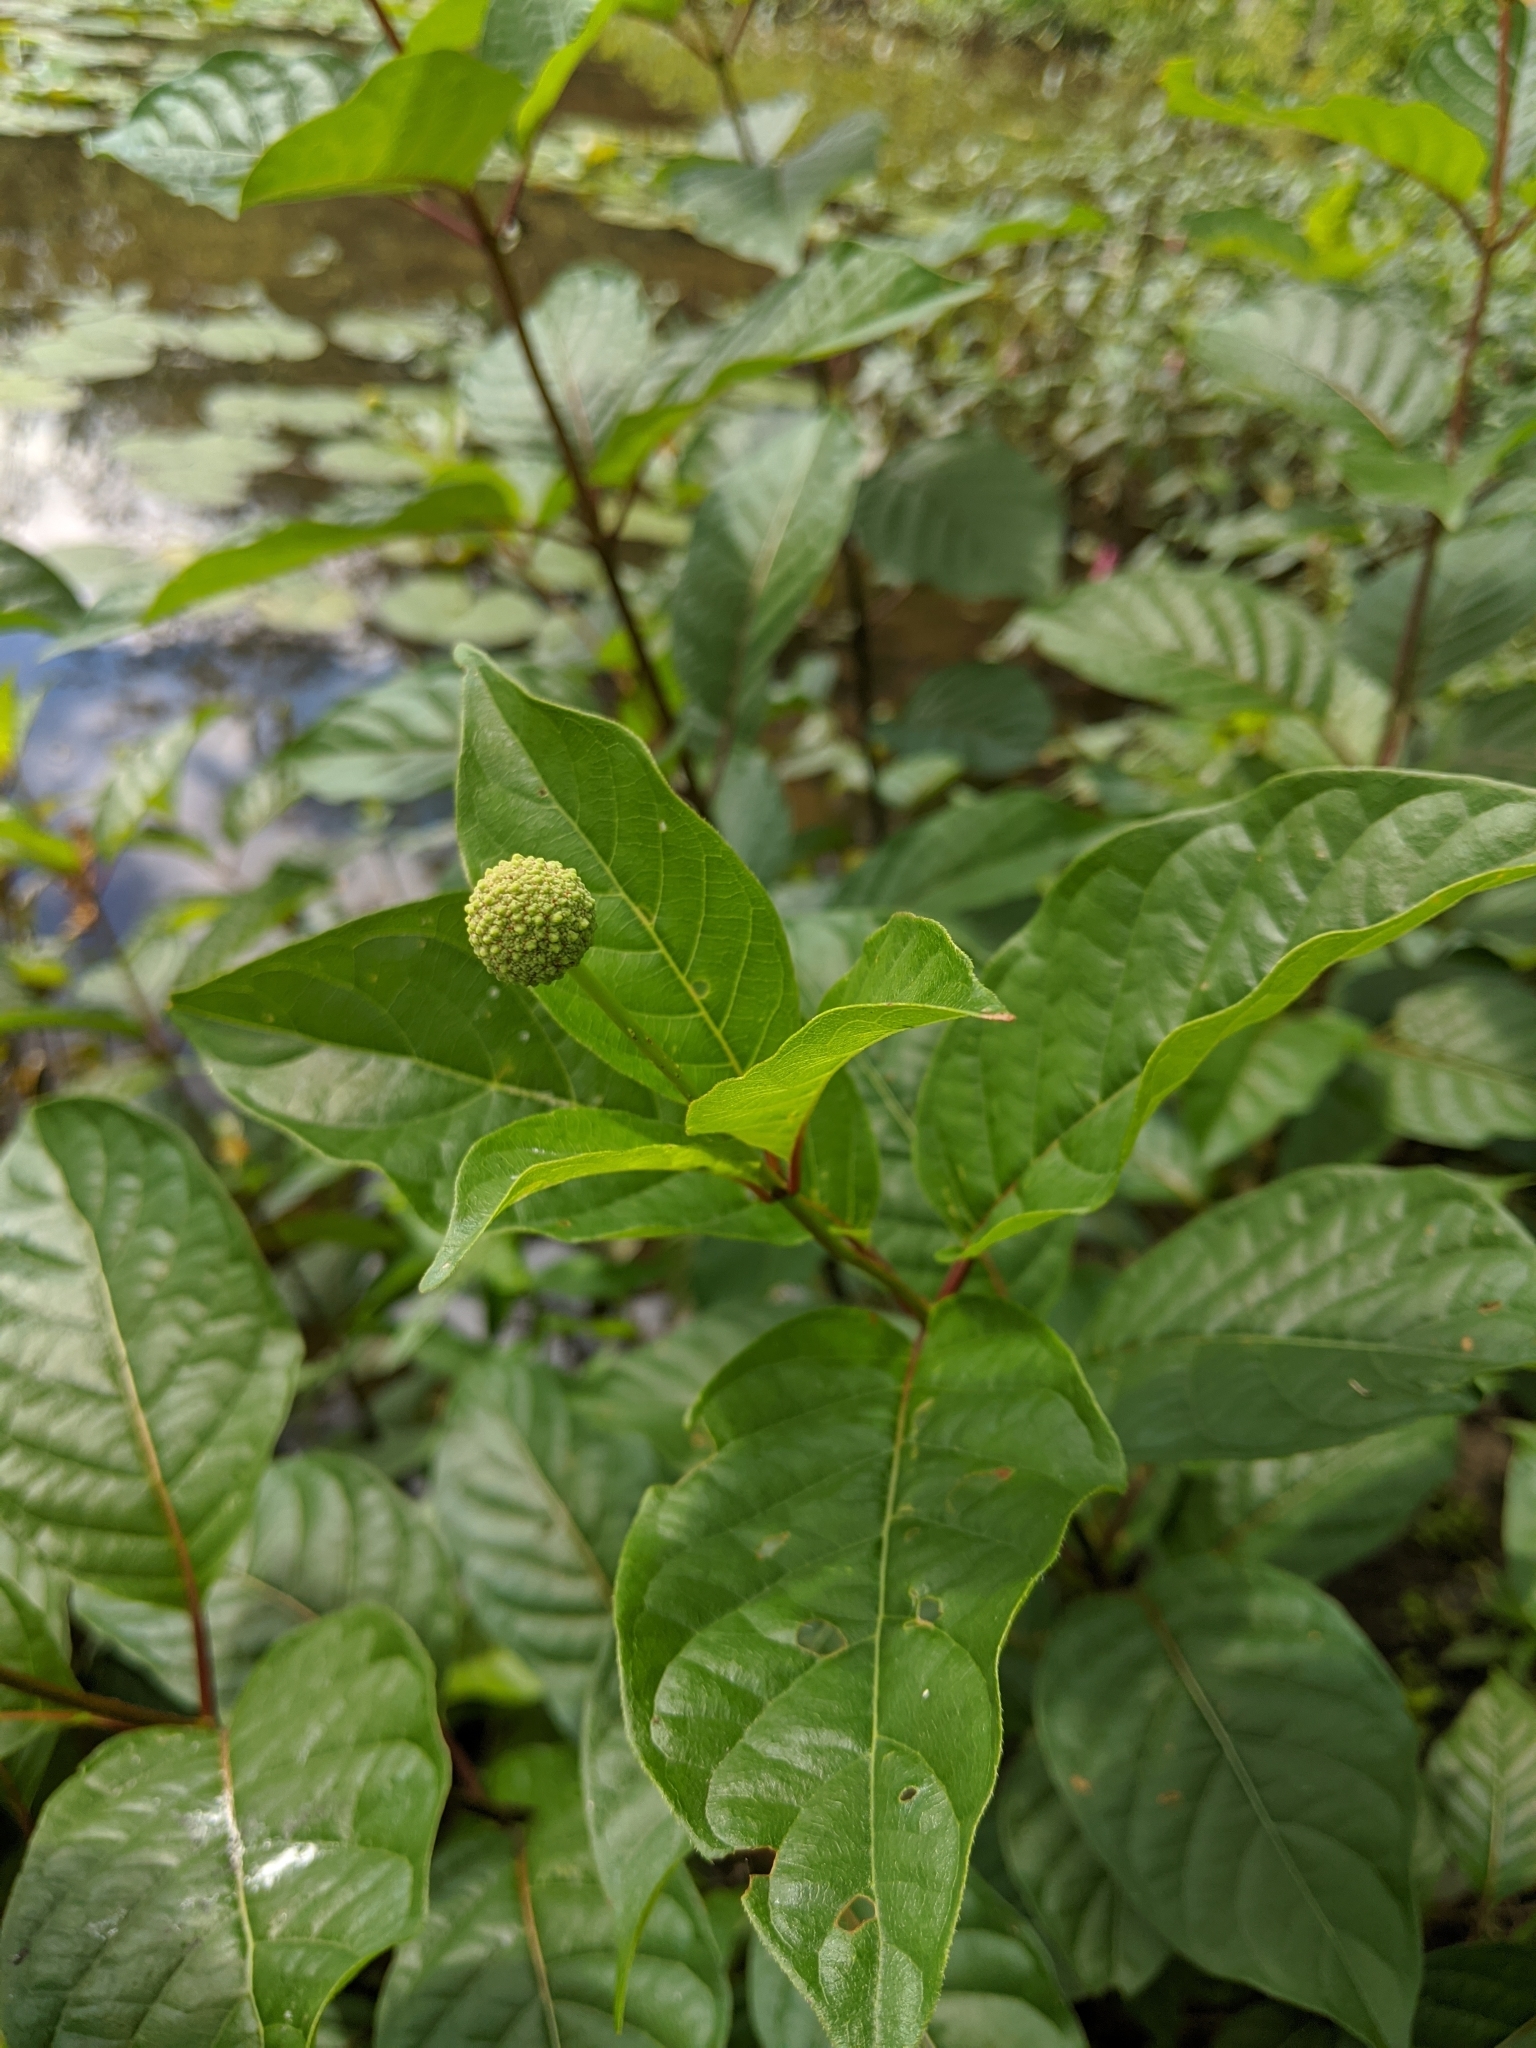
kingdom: Plantae
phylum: Tracheophyta
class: Magnoliopsida
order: Gentianales
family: Rubiaceae
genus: Cephalanthus
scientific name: Cephalanthus occidentalis
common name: Button-willow
